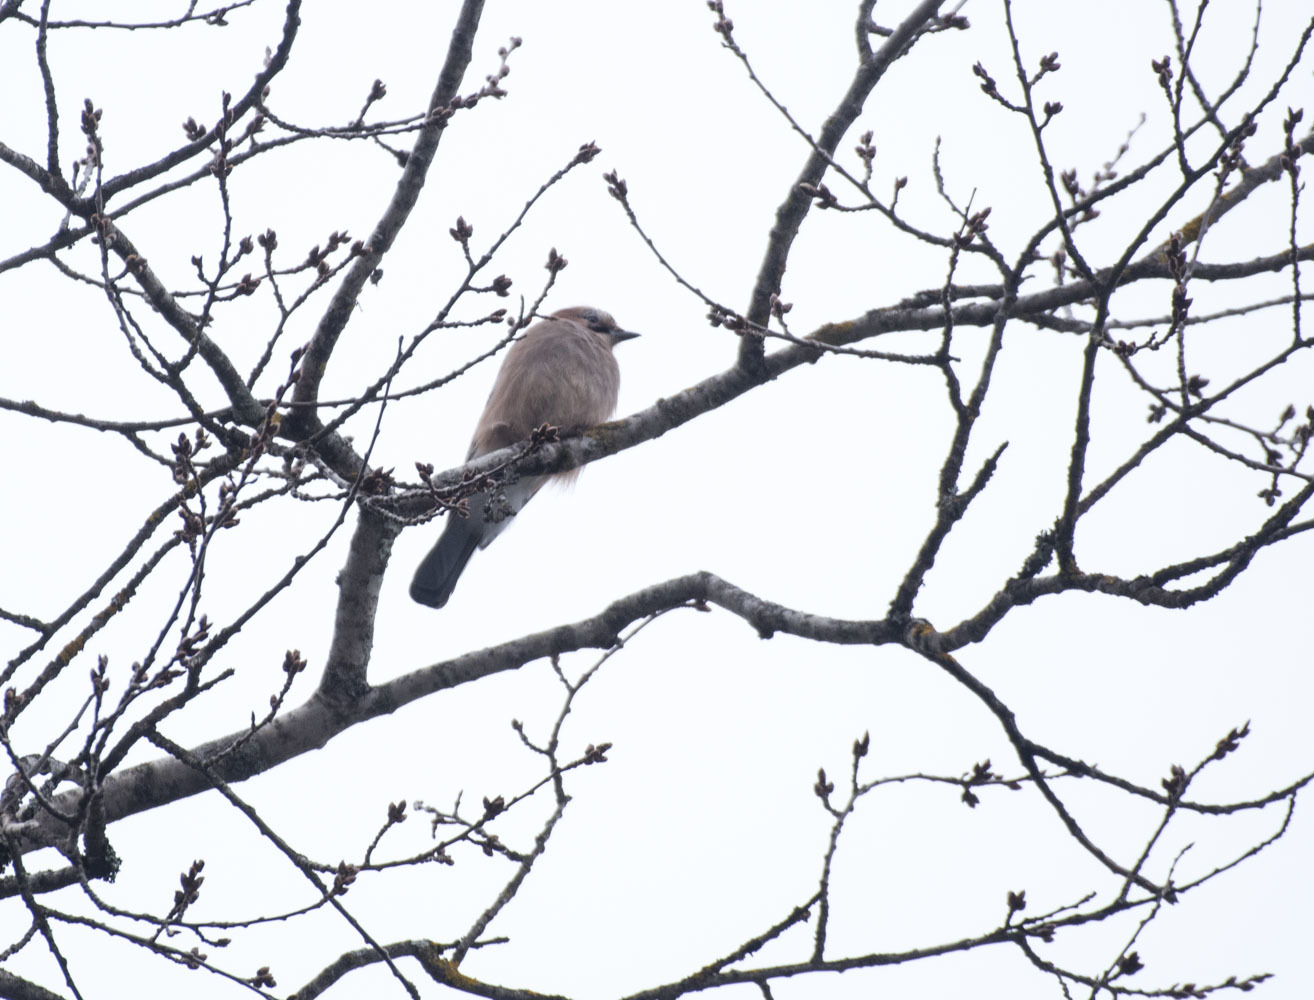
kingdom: Animalia
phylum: Chordata
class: Aves
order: Passeriformes
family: Corvidae
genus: Garrulus
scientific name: Garrulus glandarius
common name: Eurasian jay
